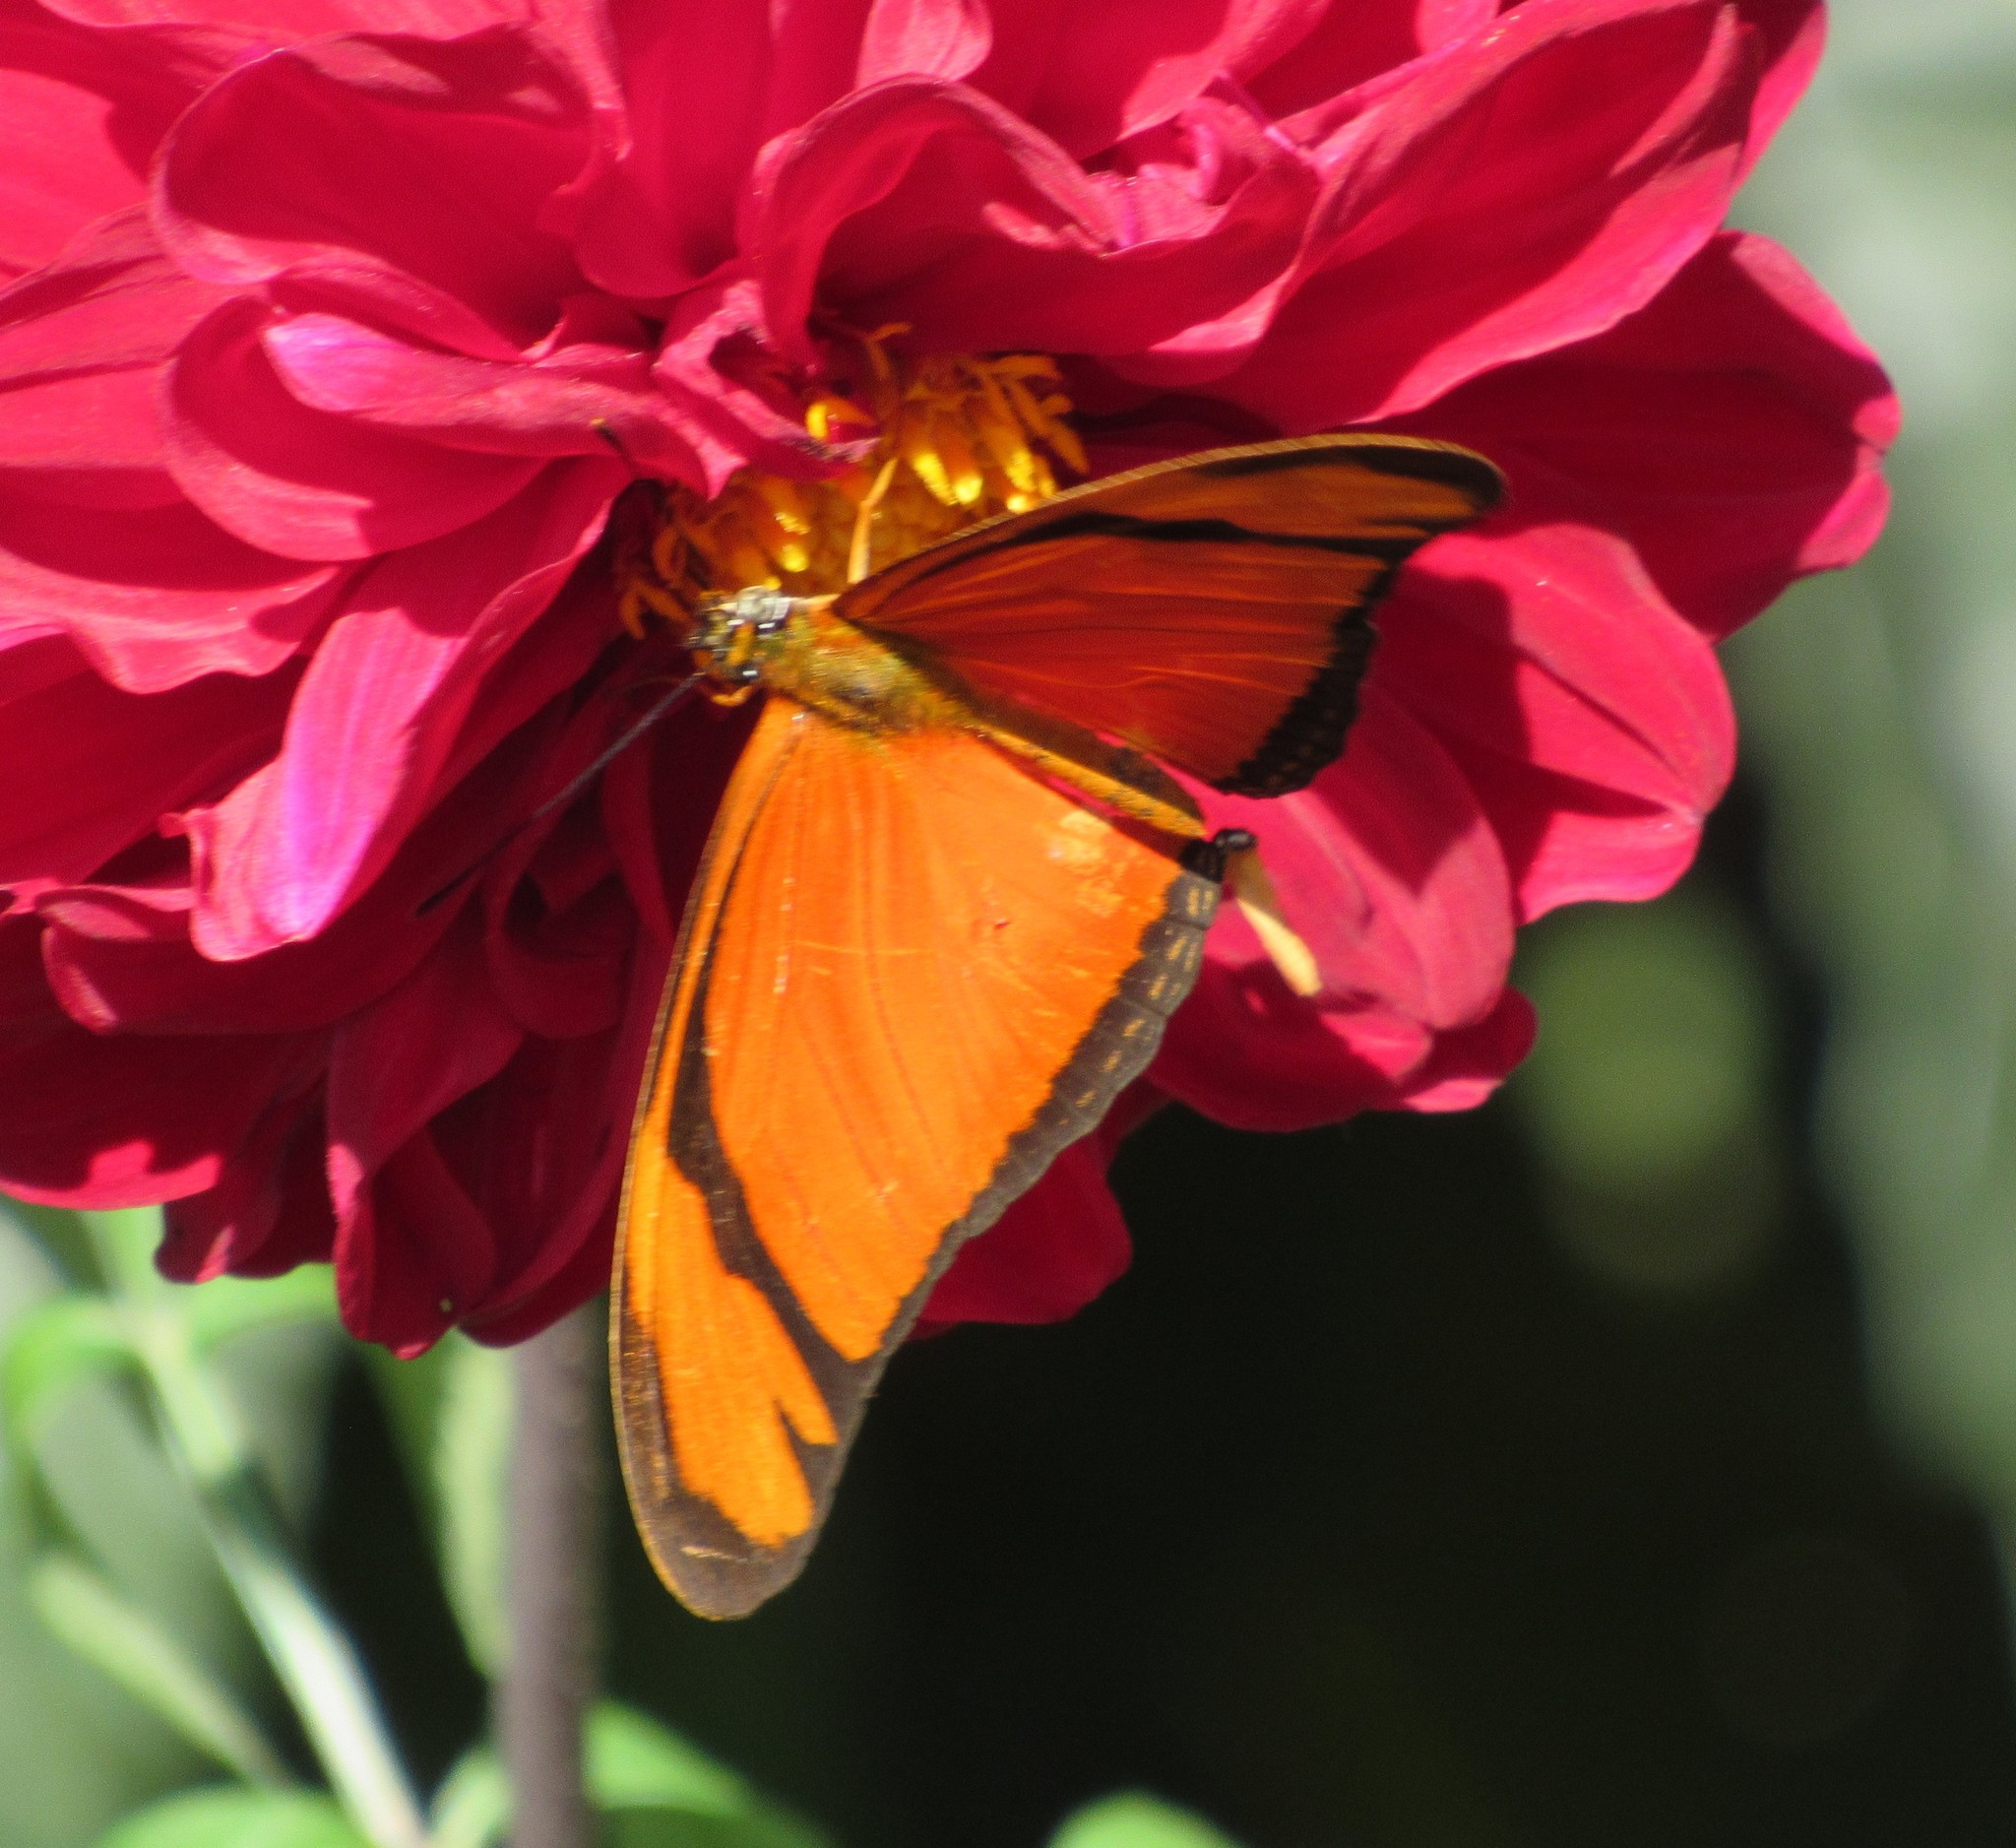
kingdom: Animalia
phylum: Arthropoda
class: Insecta
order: Lepidoptera
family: Nymphalidae
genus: Dryas
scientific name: Dryas iulia
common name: Flambeau
